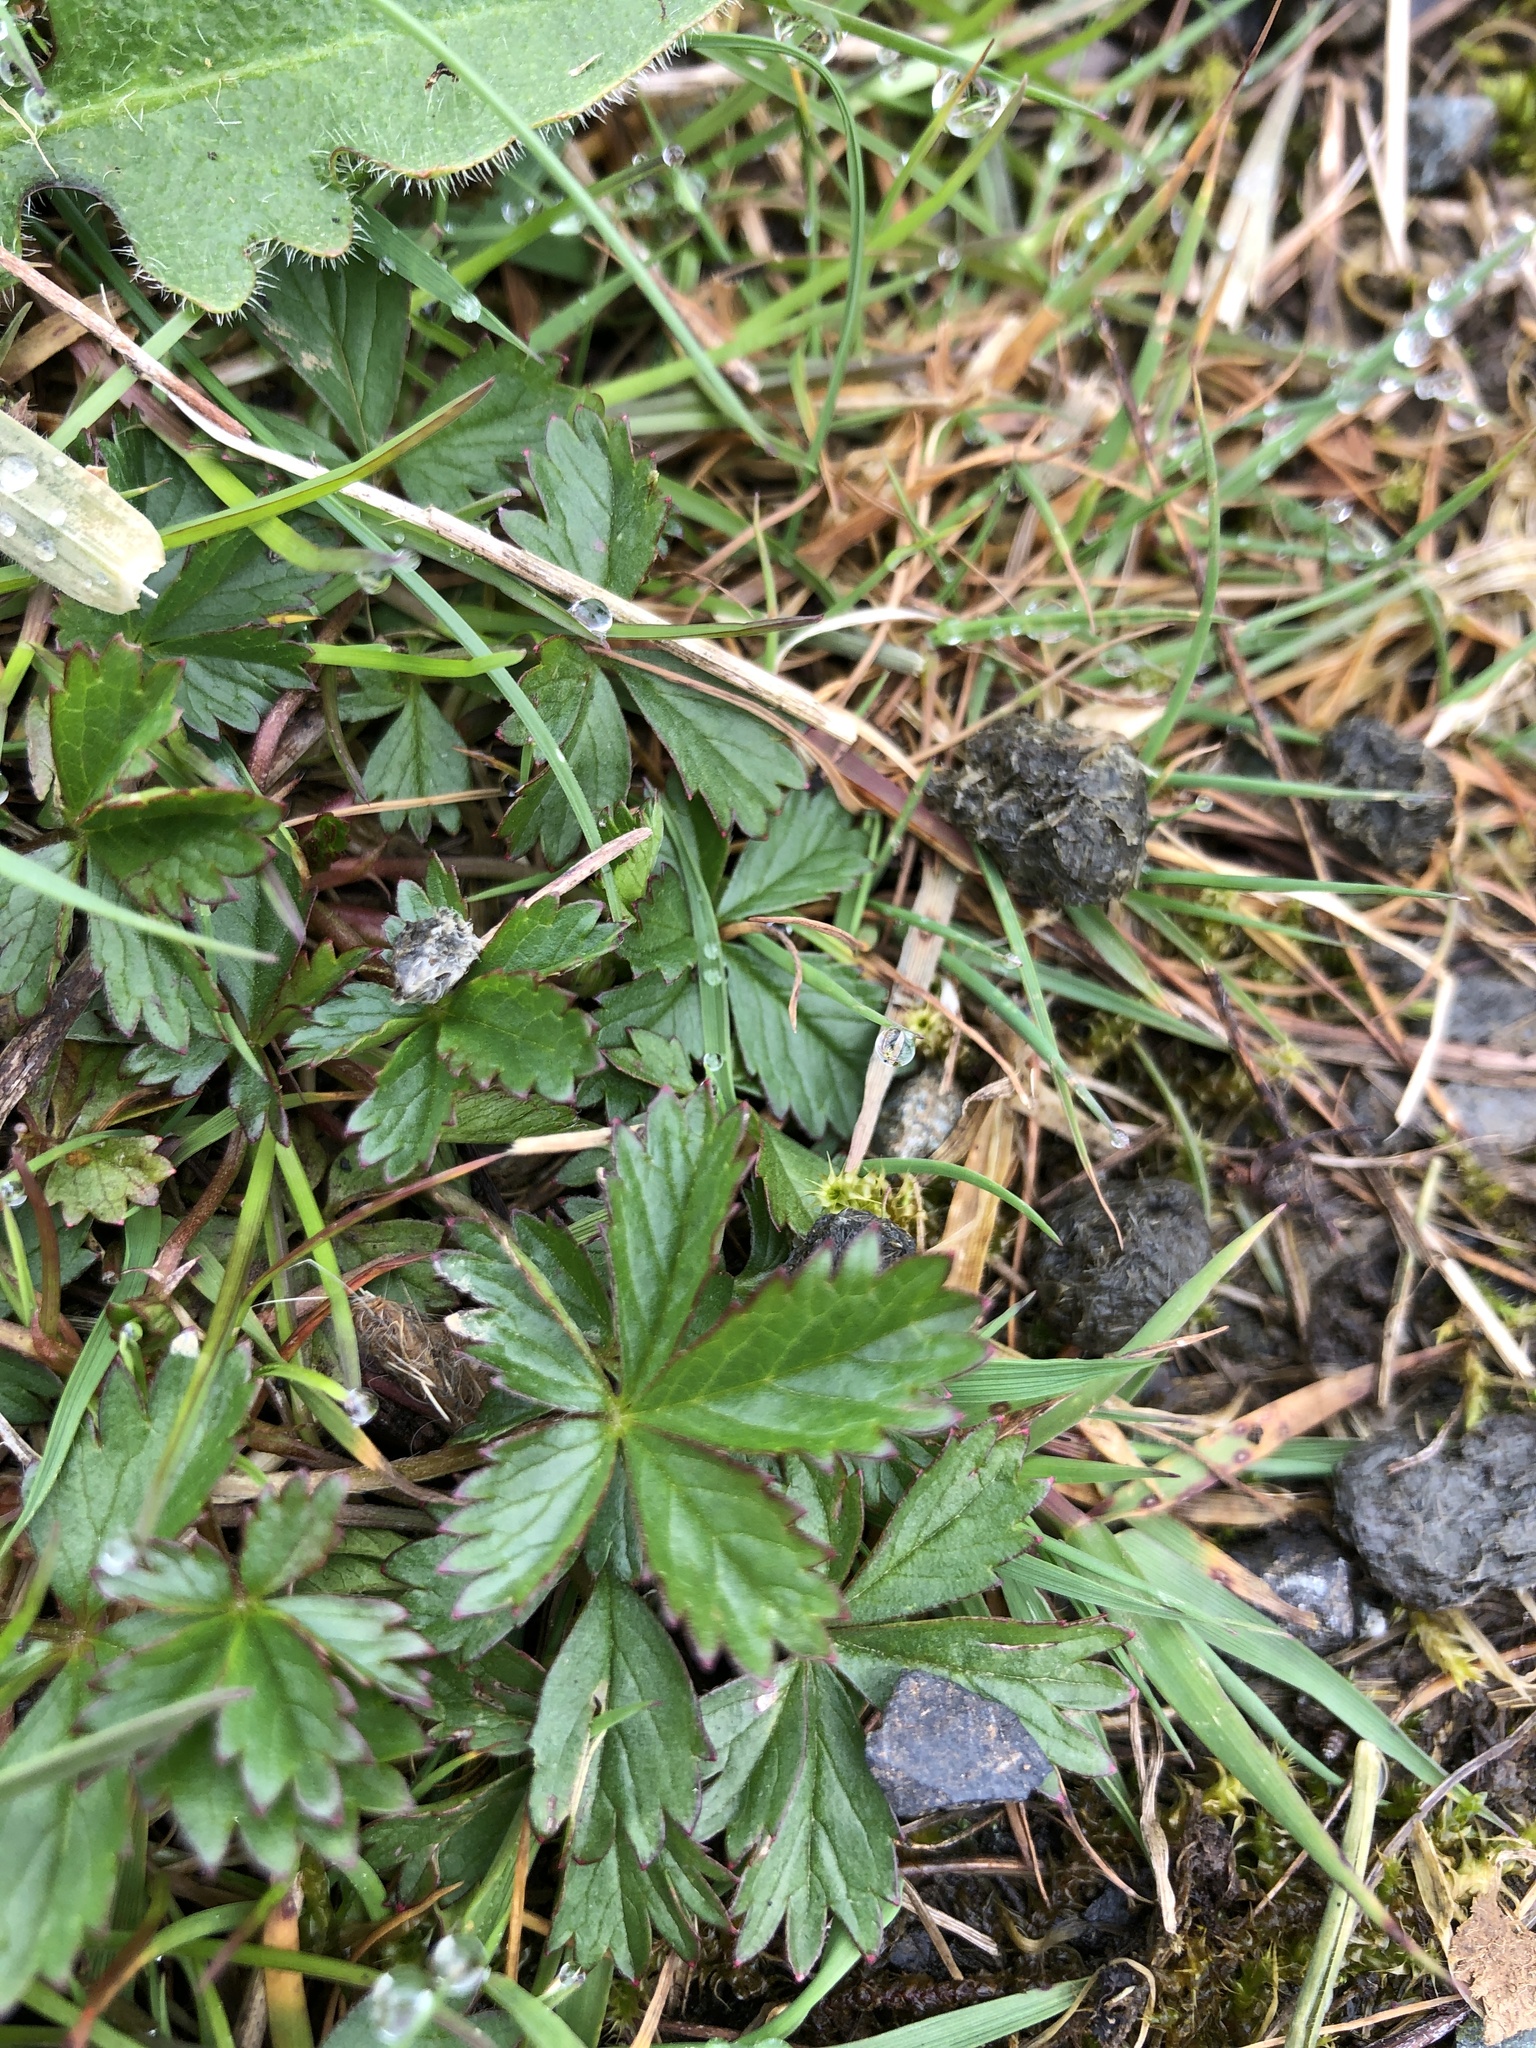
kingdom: Plantae
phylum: Tracheophyta
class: Magnoliopsida
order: Rosales
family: Rosaceae
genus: Potentilla
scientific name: Potentilla reptans
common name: Creeping cinquefoil
